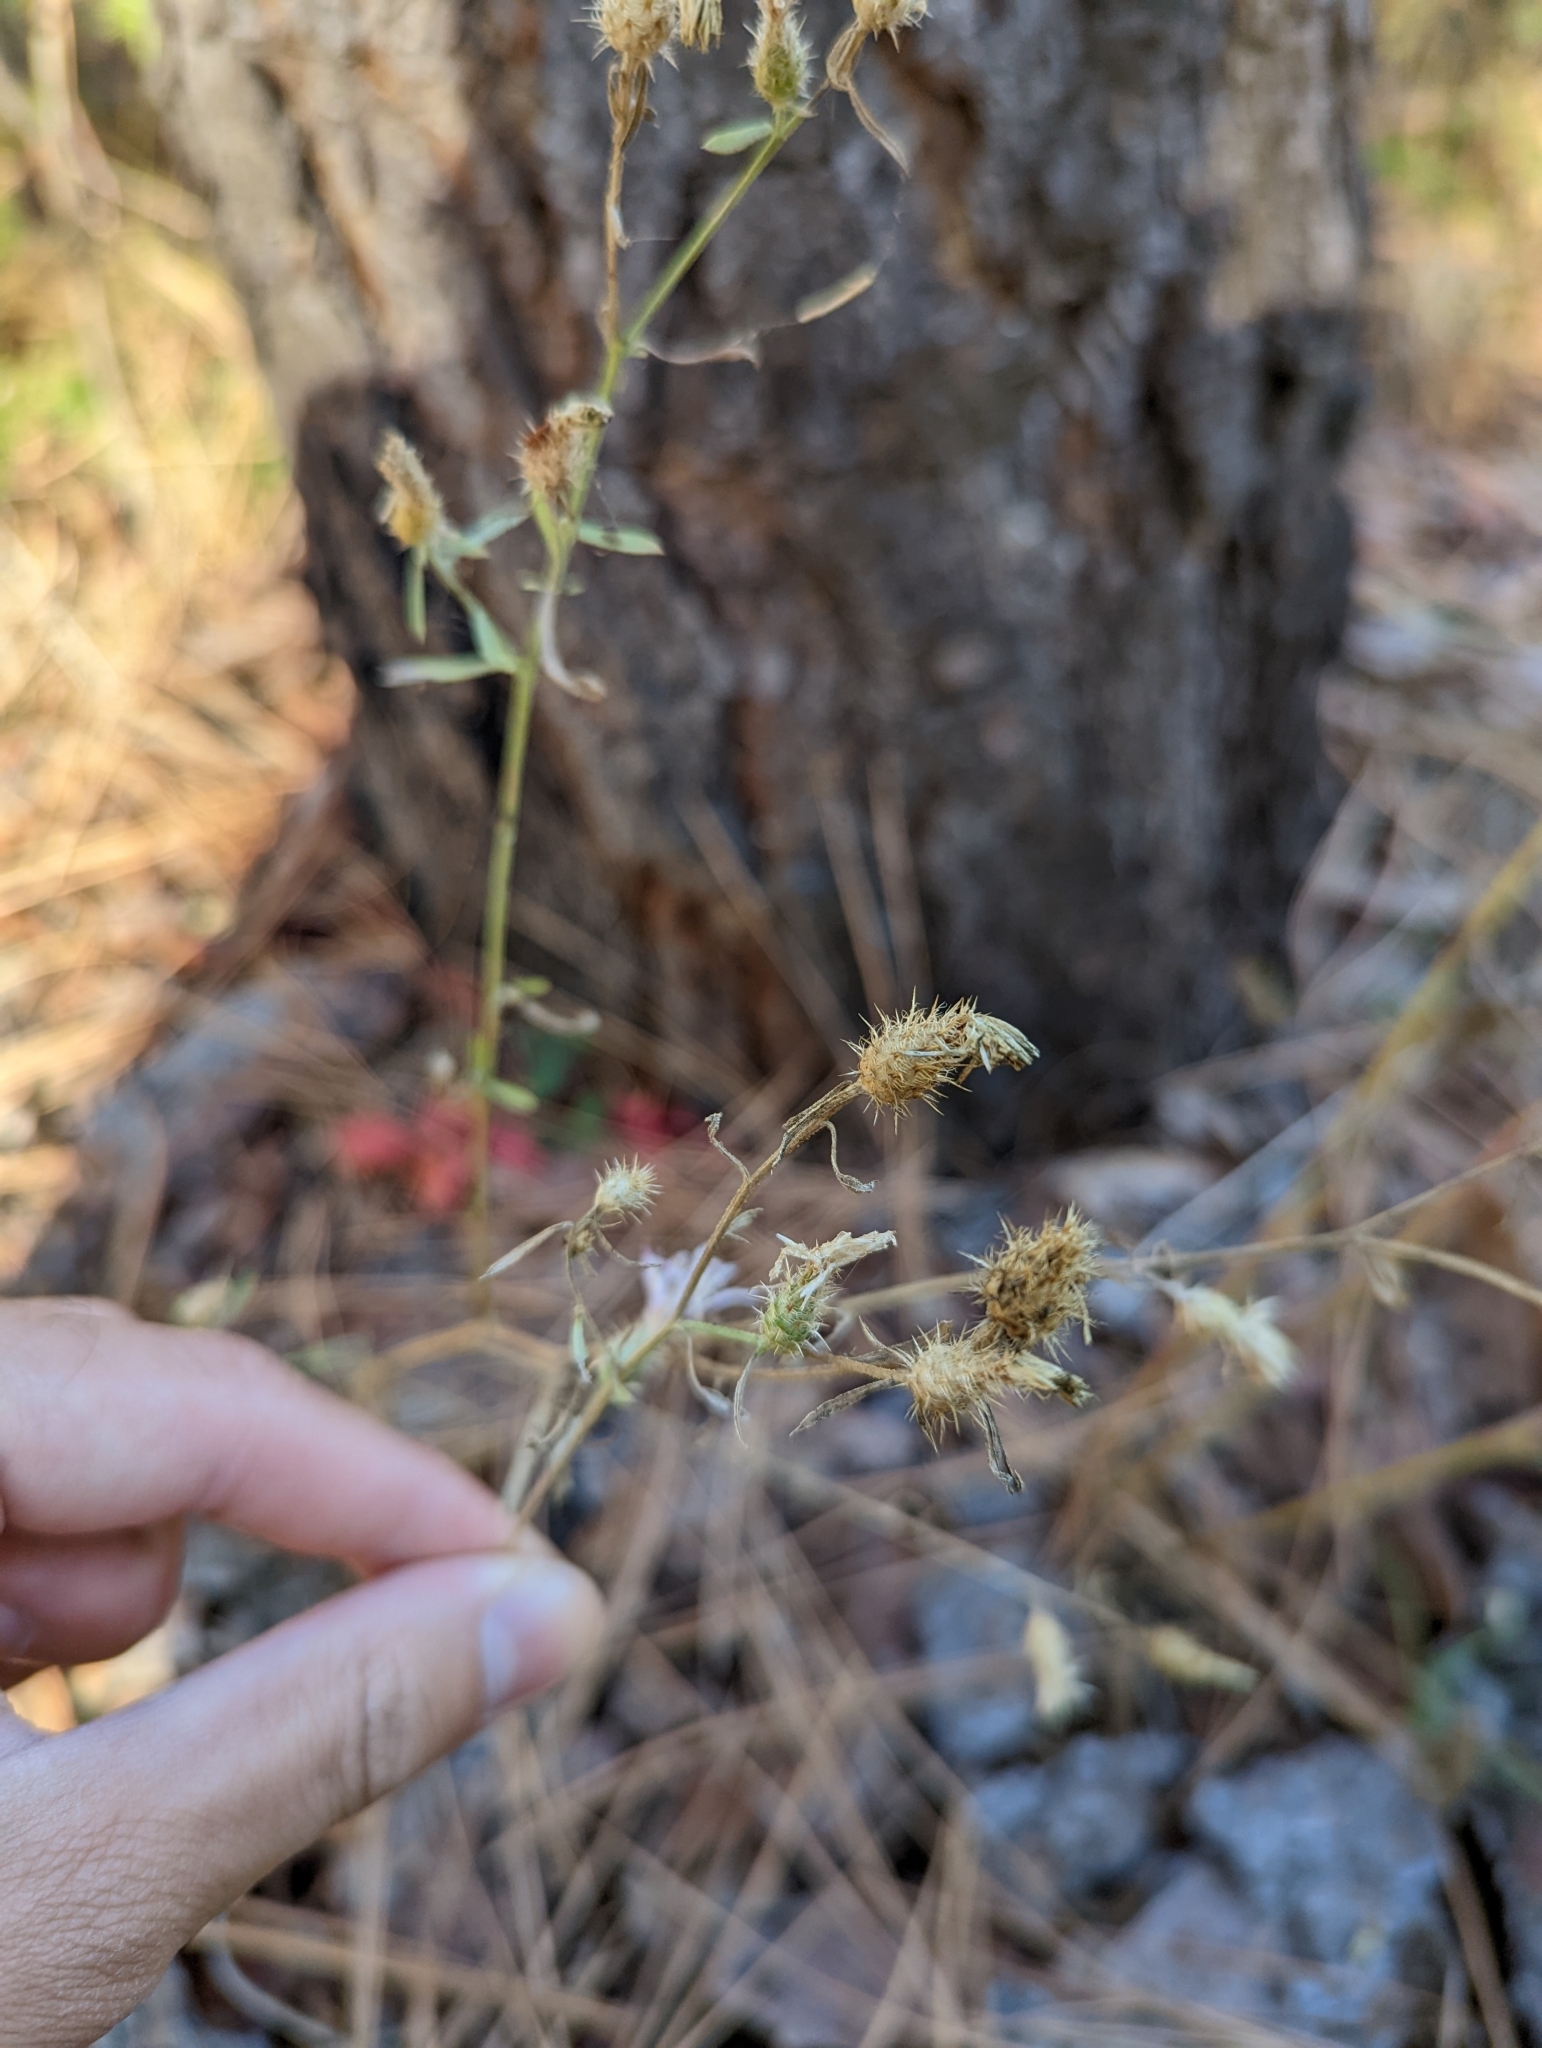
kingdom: Plantae
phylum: Tracheophyta
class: Magnoliopsida
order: Asterales
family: Asteraceae
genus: Centaurea
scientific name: Centaurea diffusa
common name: Diffuse knapweed
